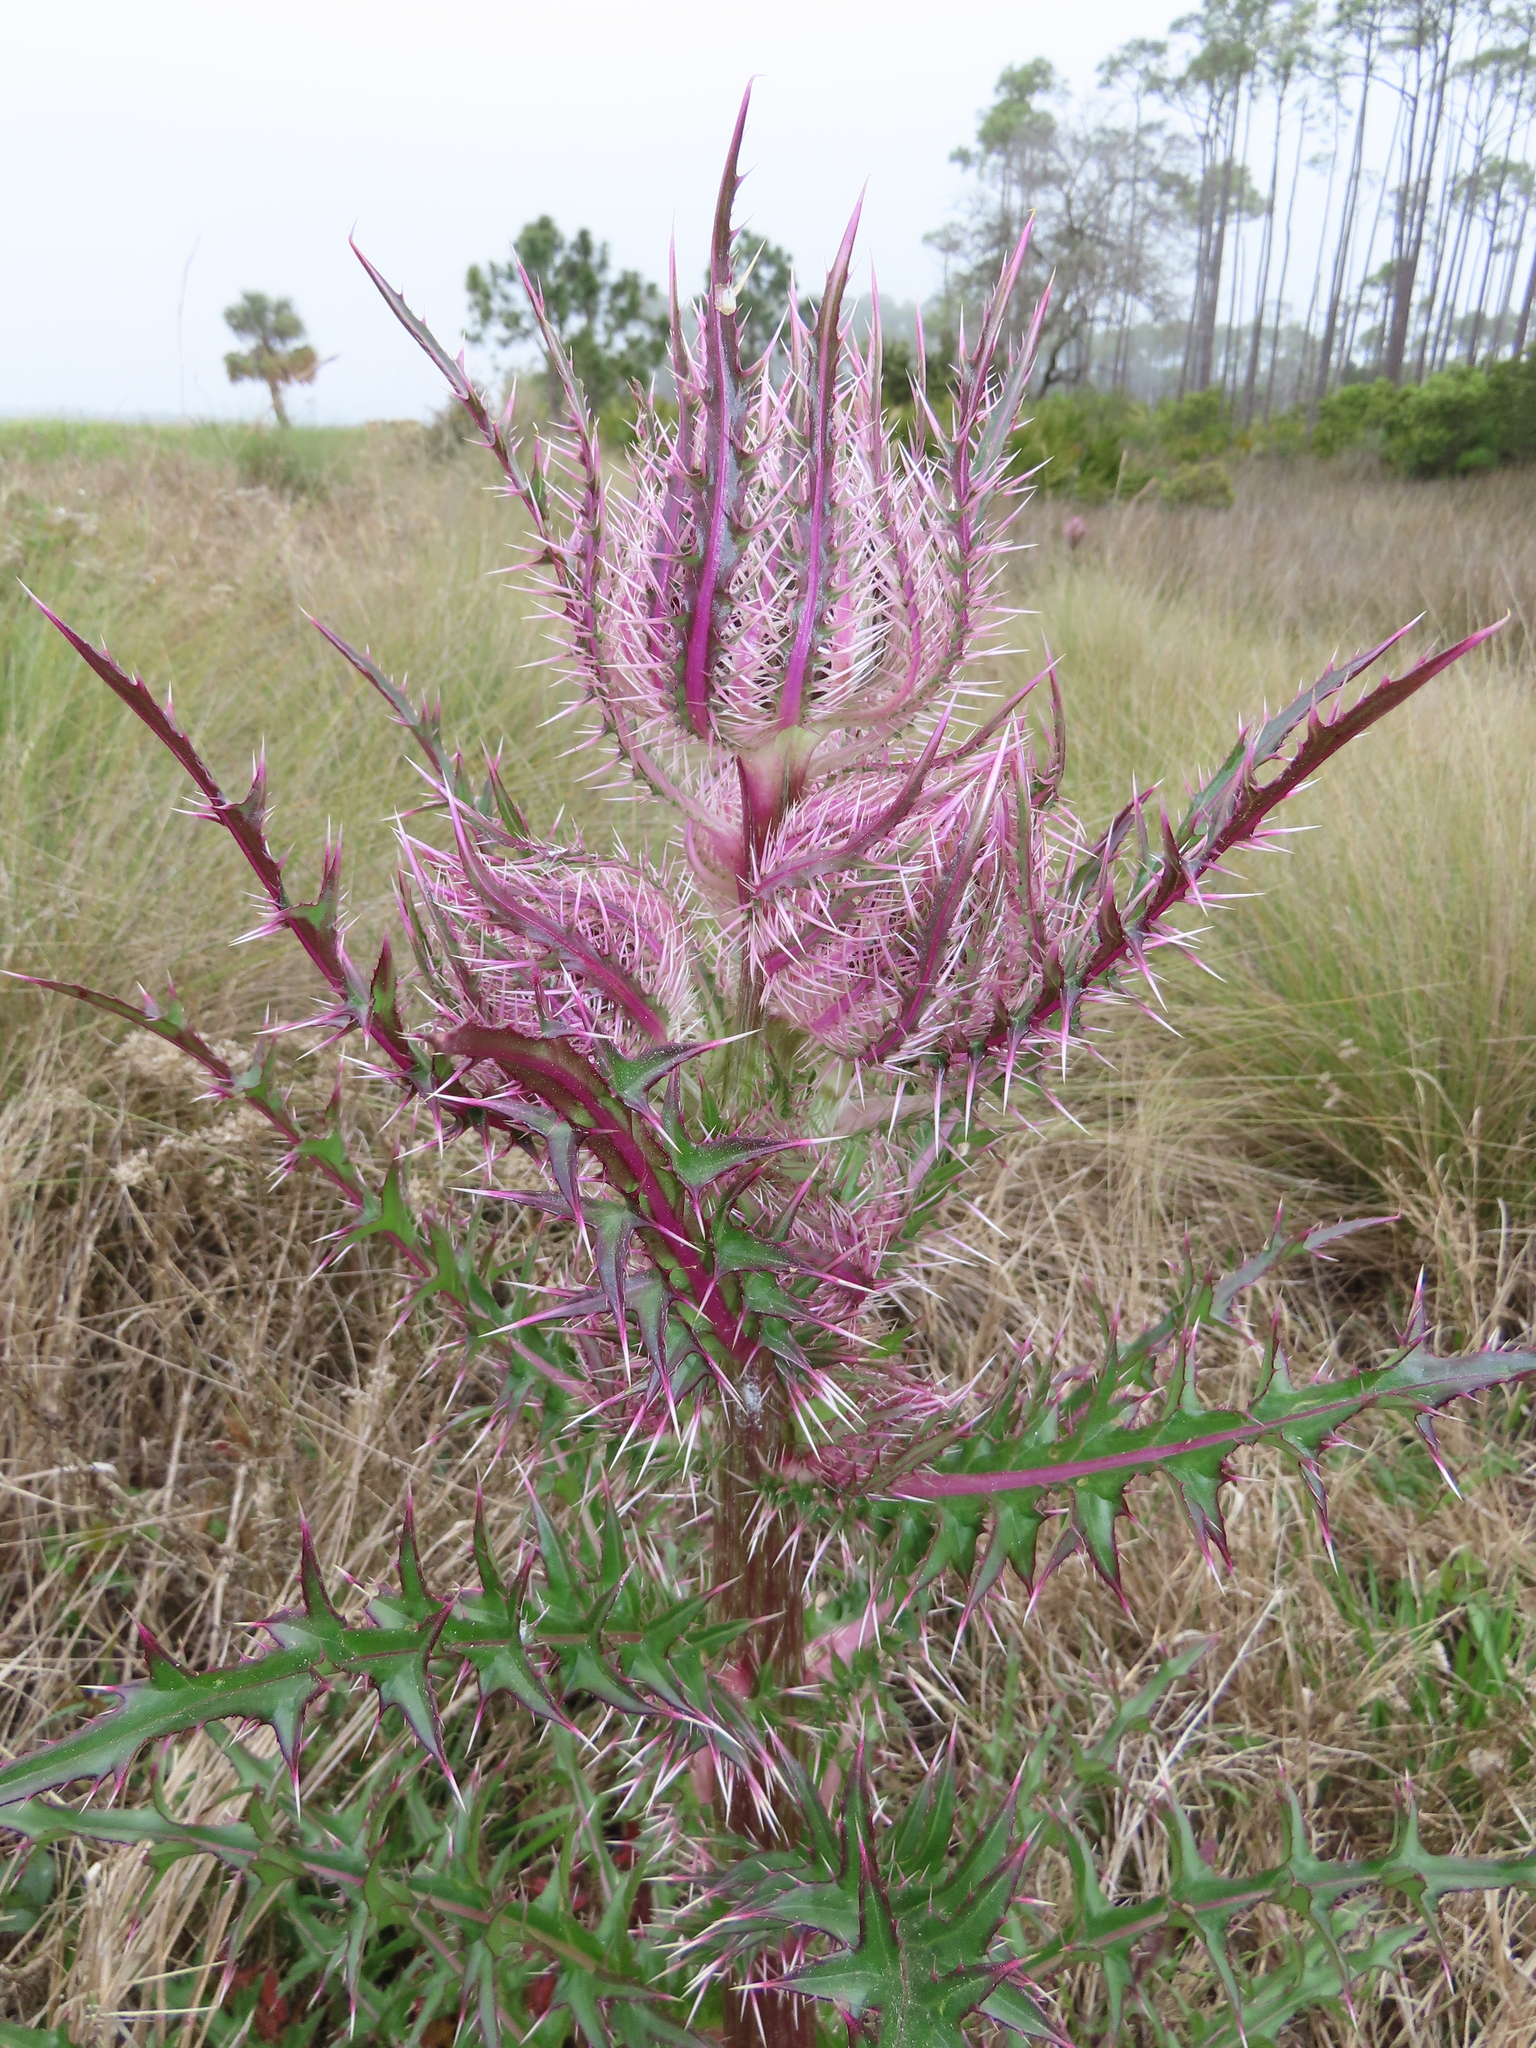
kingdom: Plantae
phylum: Tracheophyta
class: Magnoliopsida
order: Asterales
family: Asteraceae
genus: Cirsium
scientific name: Cirsium horridulum
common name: Bristly thistle
